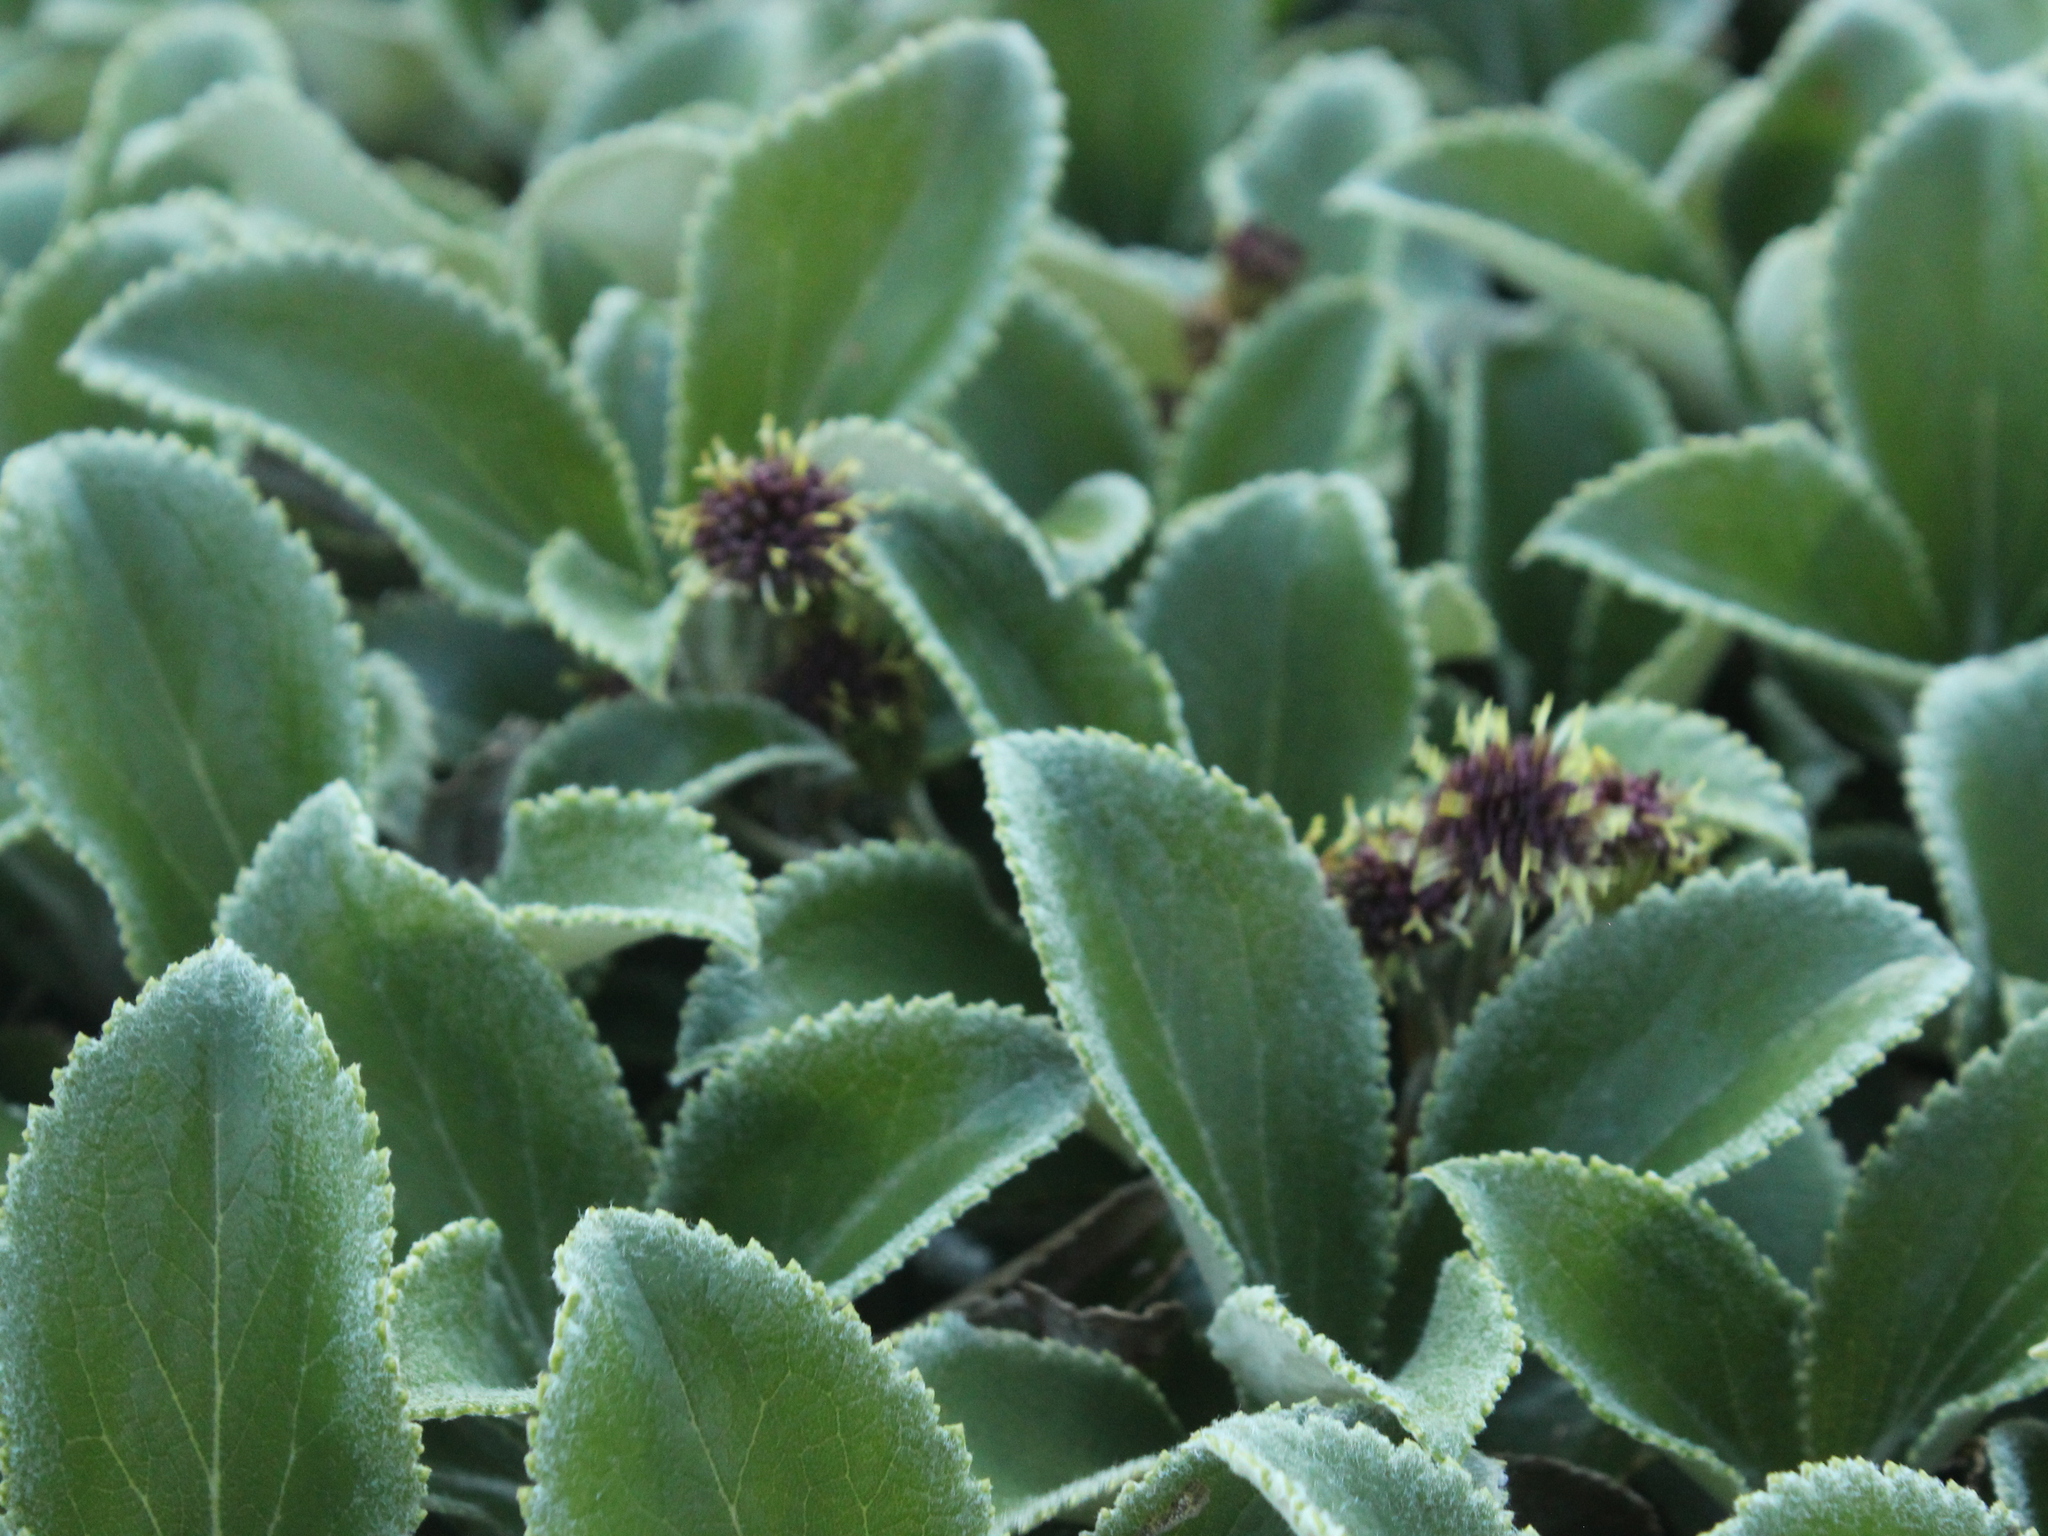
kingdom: Plantae
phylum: Tracheophyta
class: Magnoliopsida
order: Asterales
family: Asteraceae
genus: Macrolearia
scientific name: Macrolearia colensoi
